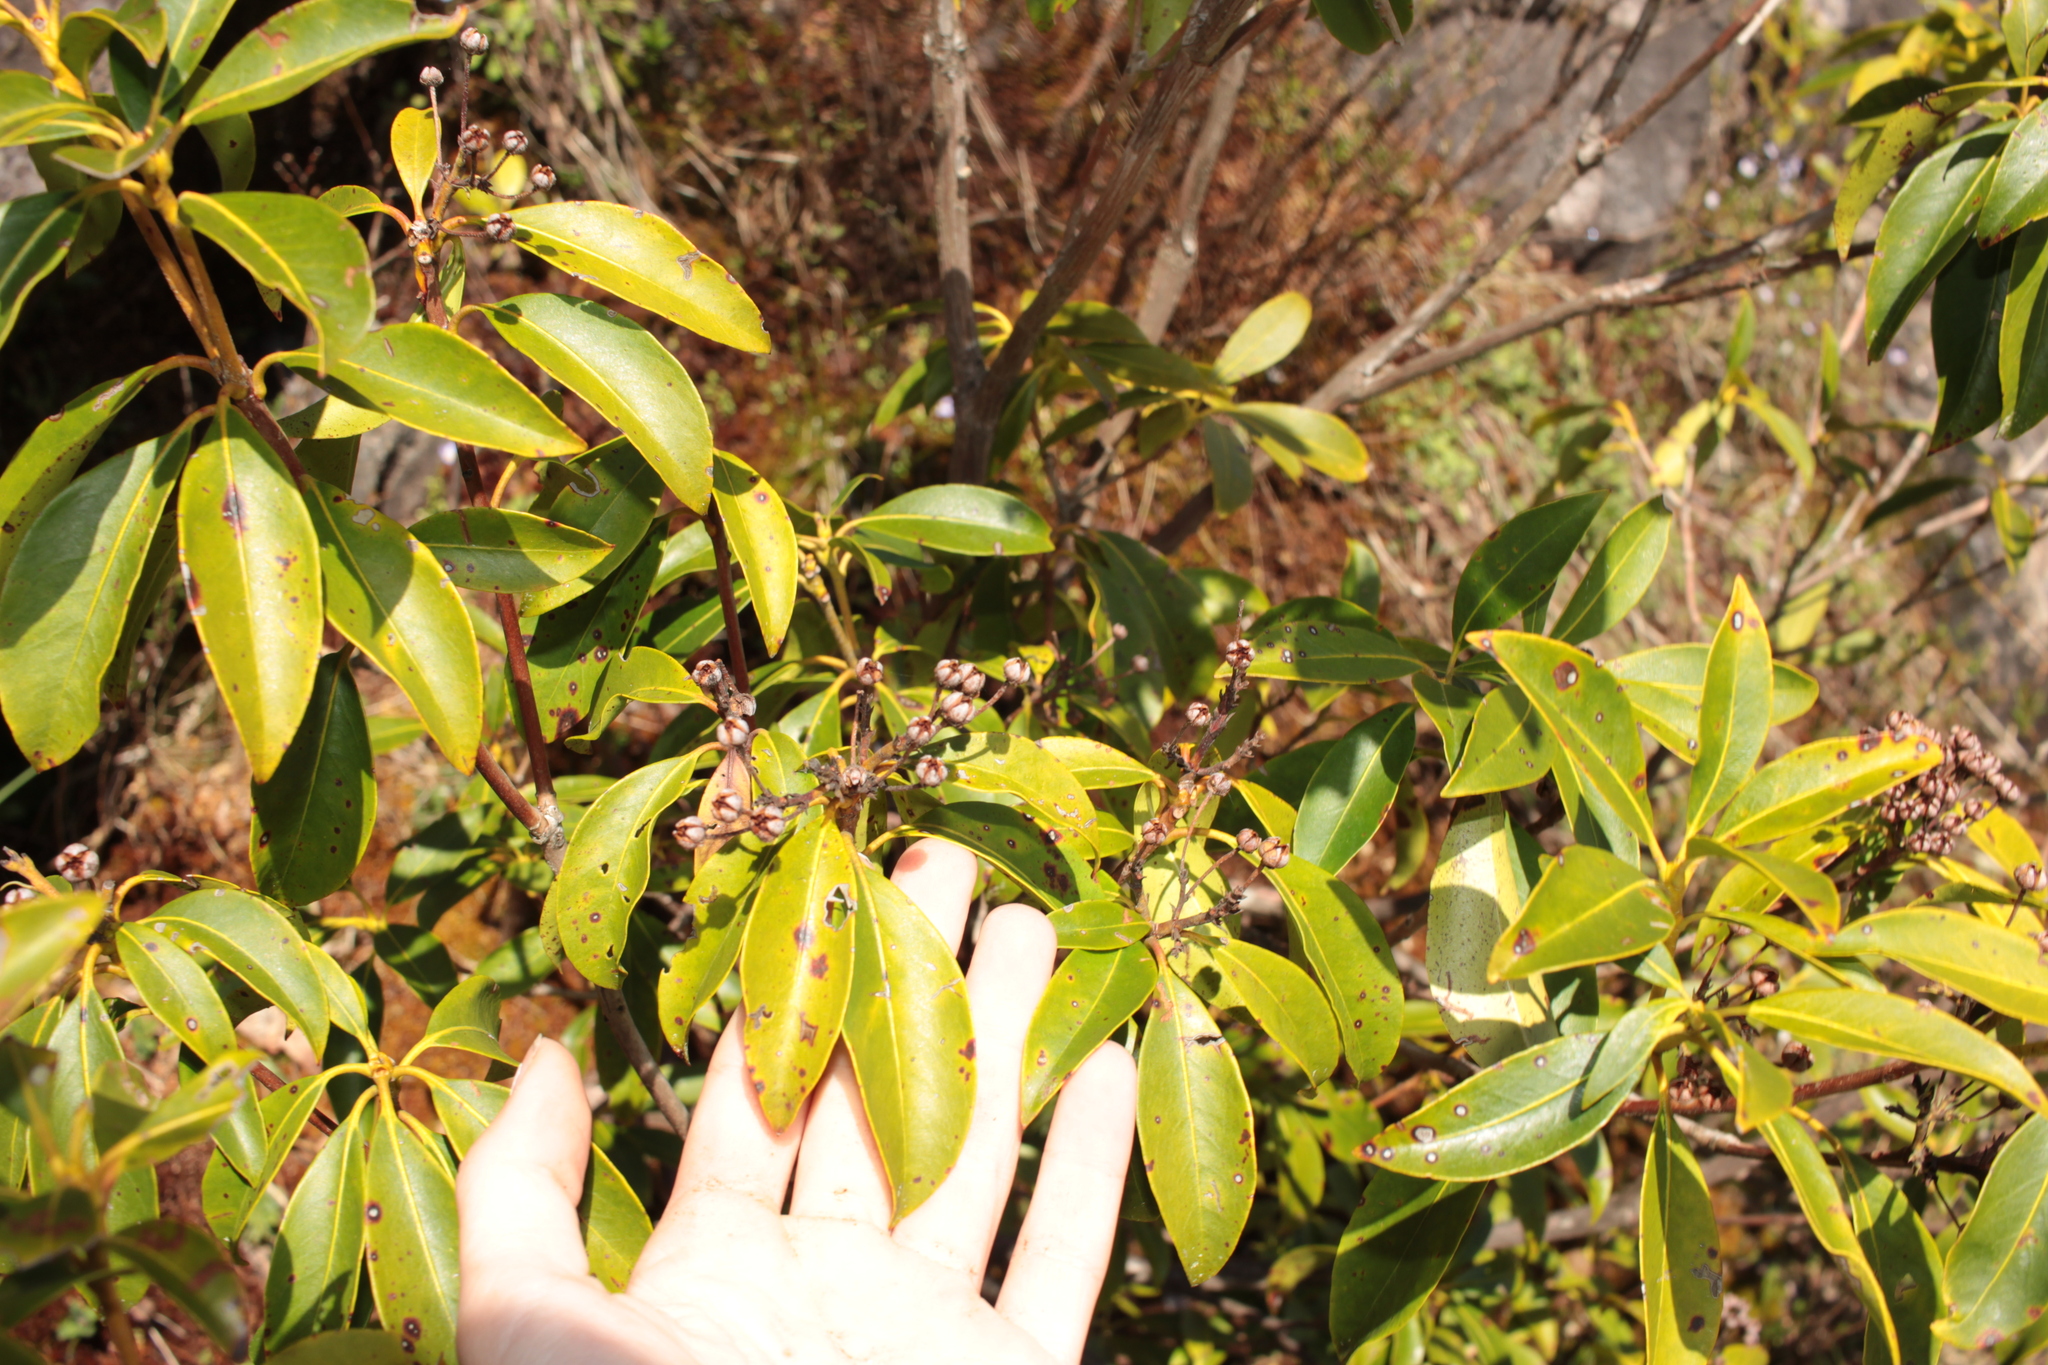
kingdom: Plantae
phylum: Tracheophyta
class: Magnoliopsida
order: Ericales
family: Ericaceae
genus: Kalmia
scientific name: Kalmia latifolia
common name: Mountain-laurel
